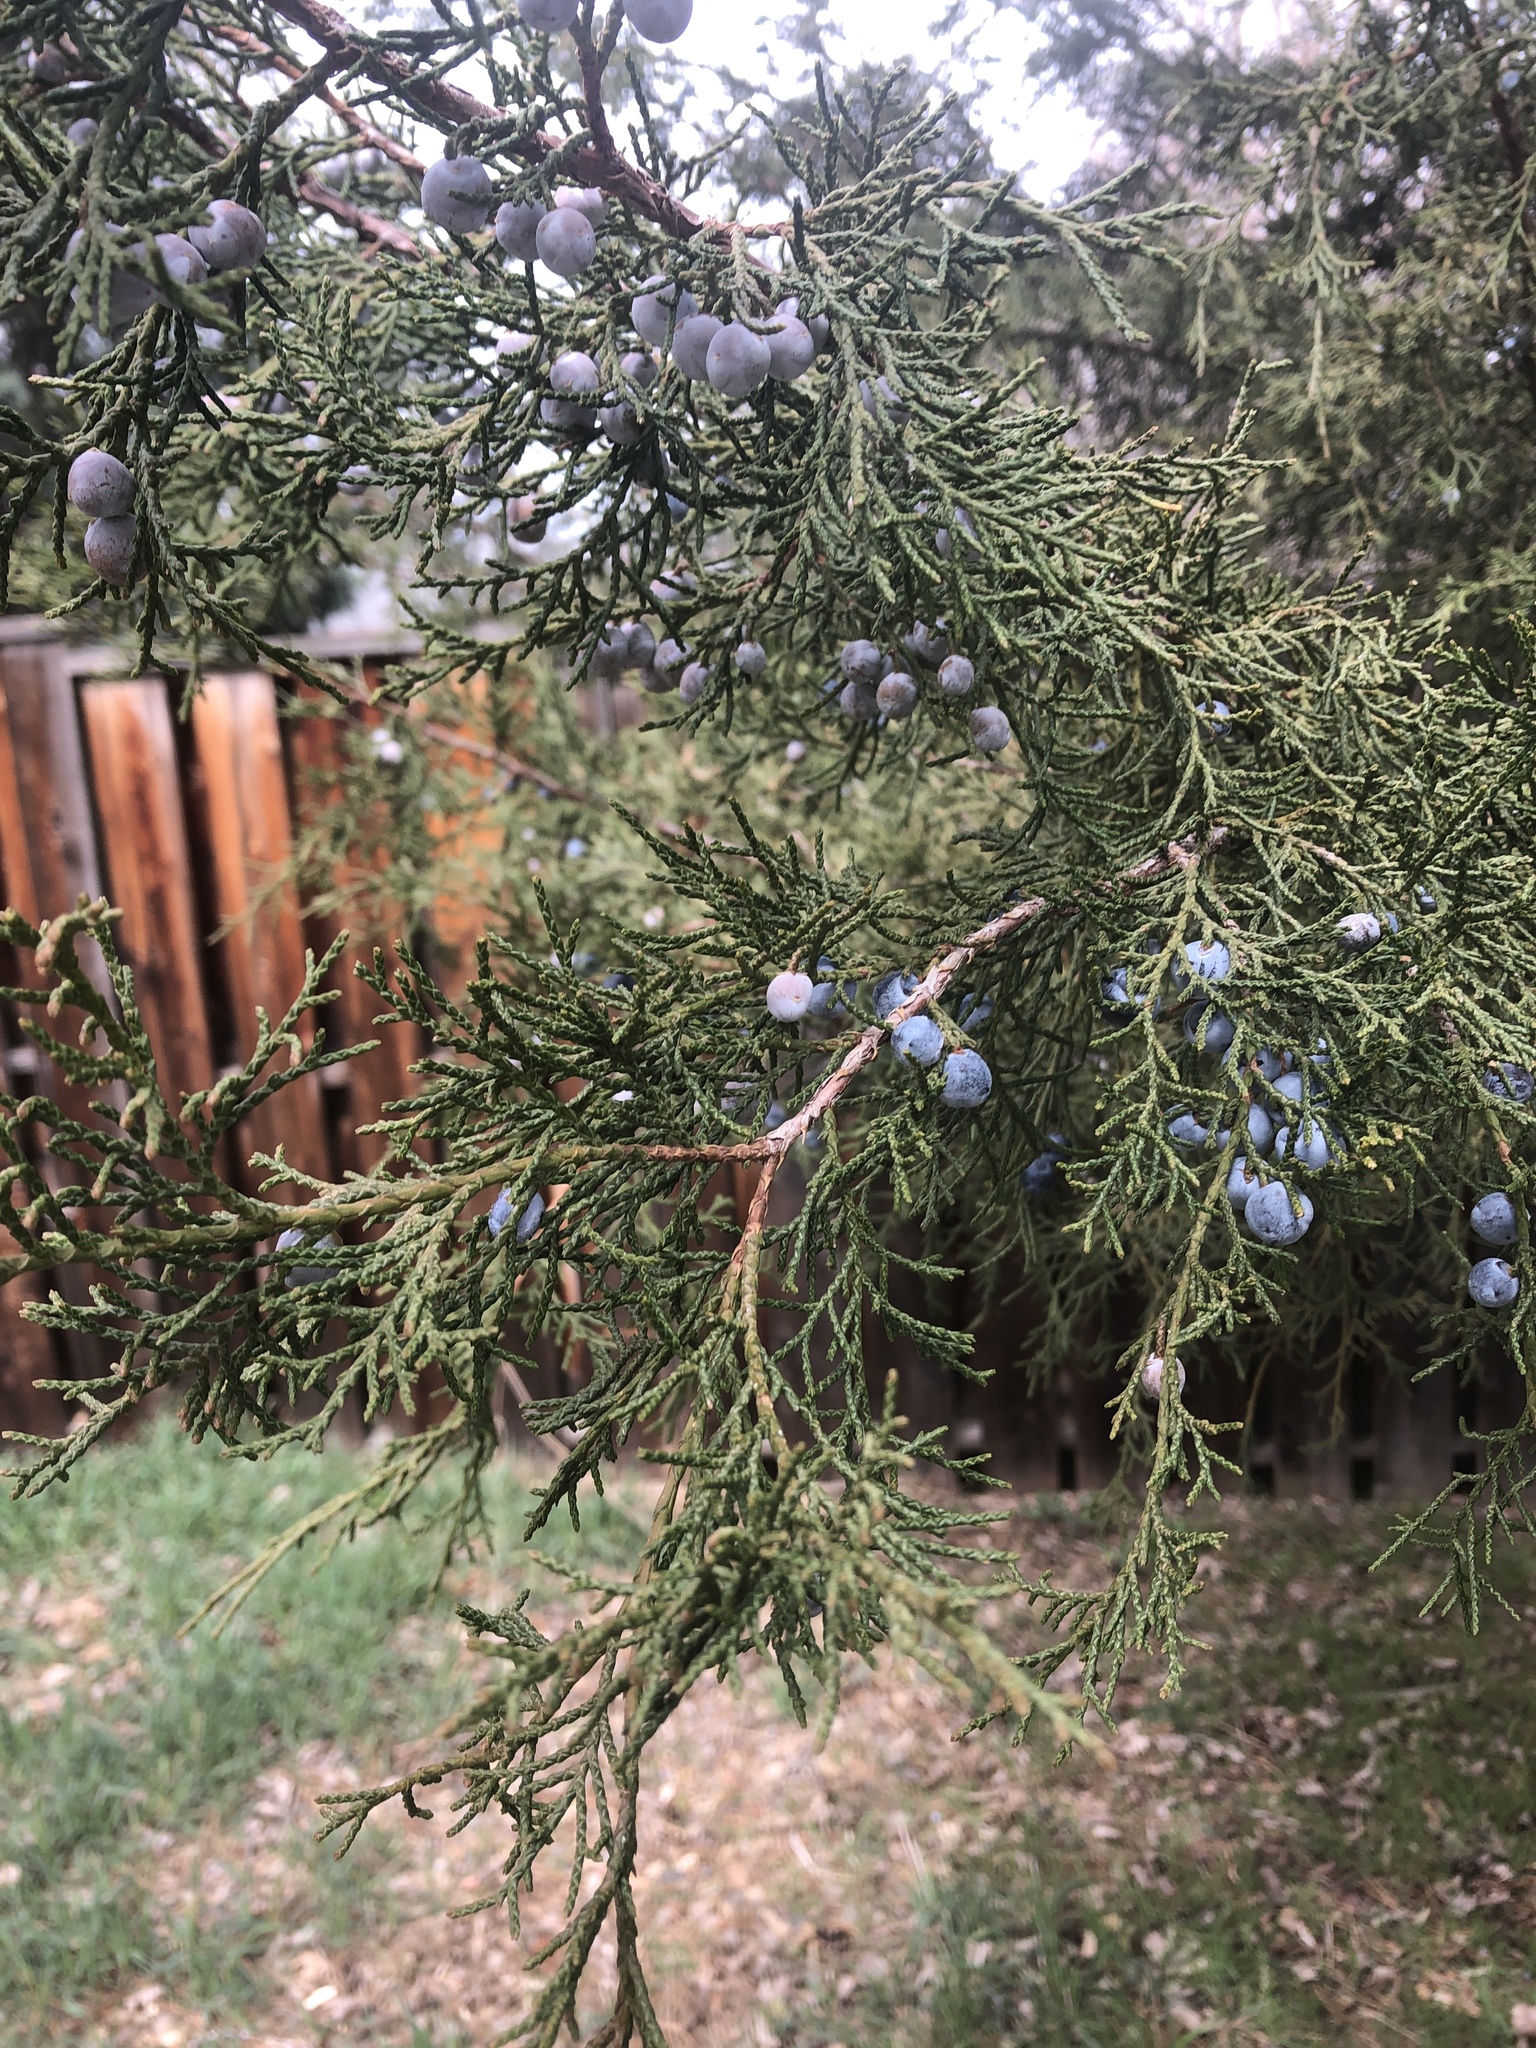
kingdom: Plantae
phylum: Tracheophyta
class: Pinopsida
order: Pinales
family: Cupressaceae
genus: Juniperus
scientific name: Juniperus scopulorum
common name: Rocky mountain juniper
